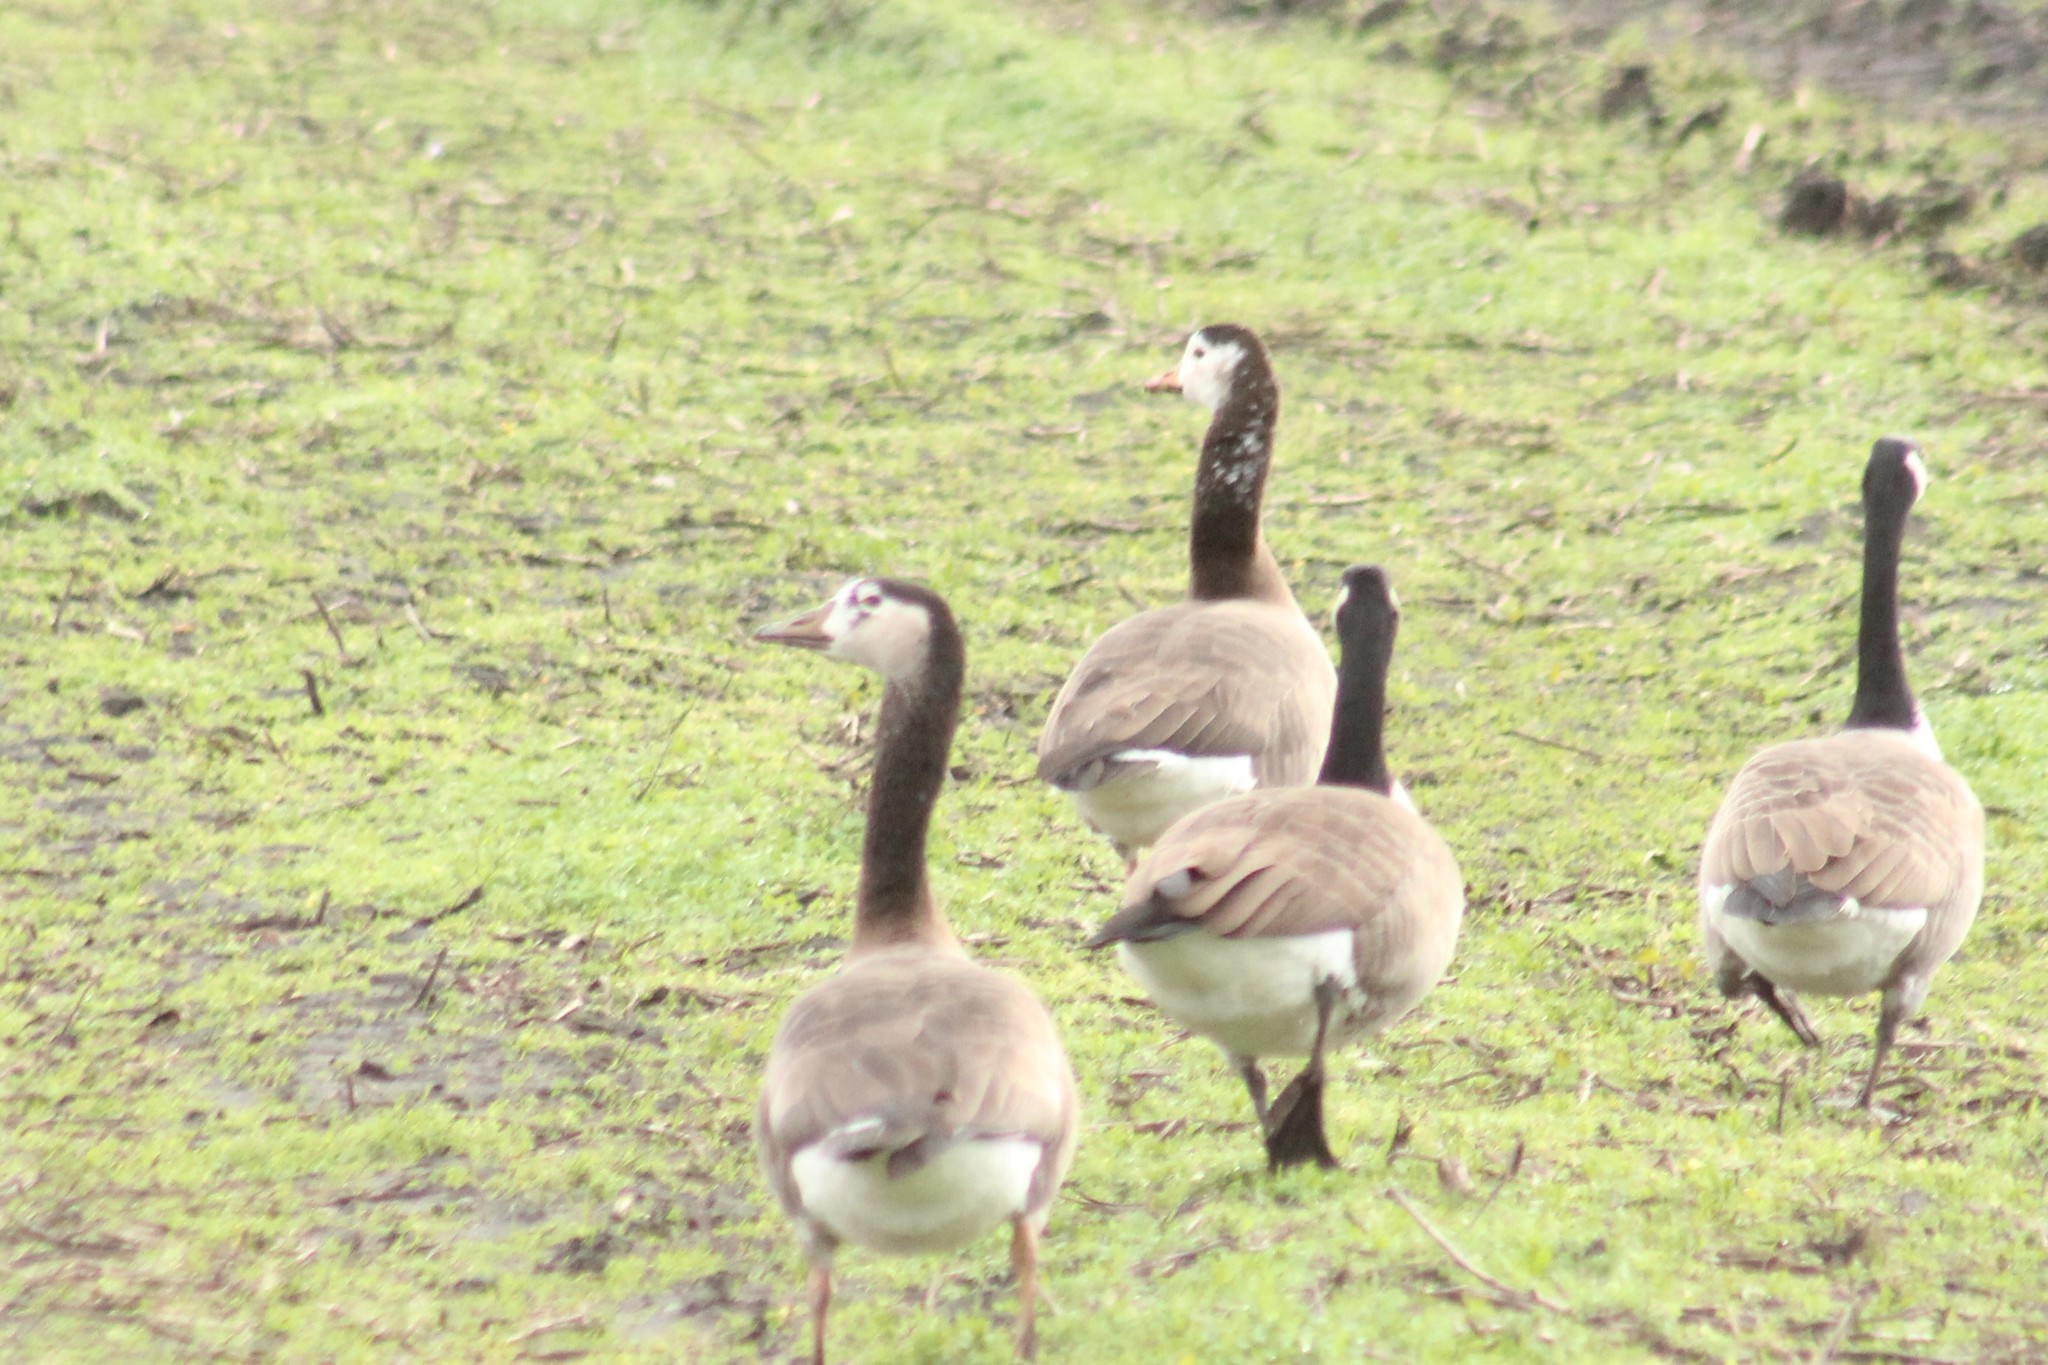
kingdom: Animalia
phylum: Chordata
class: Aves
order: Anseriformes
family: Anatidae
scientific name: Anatidae
